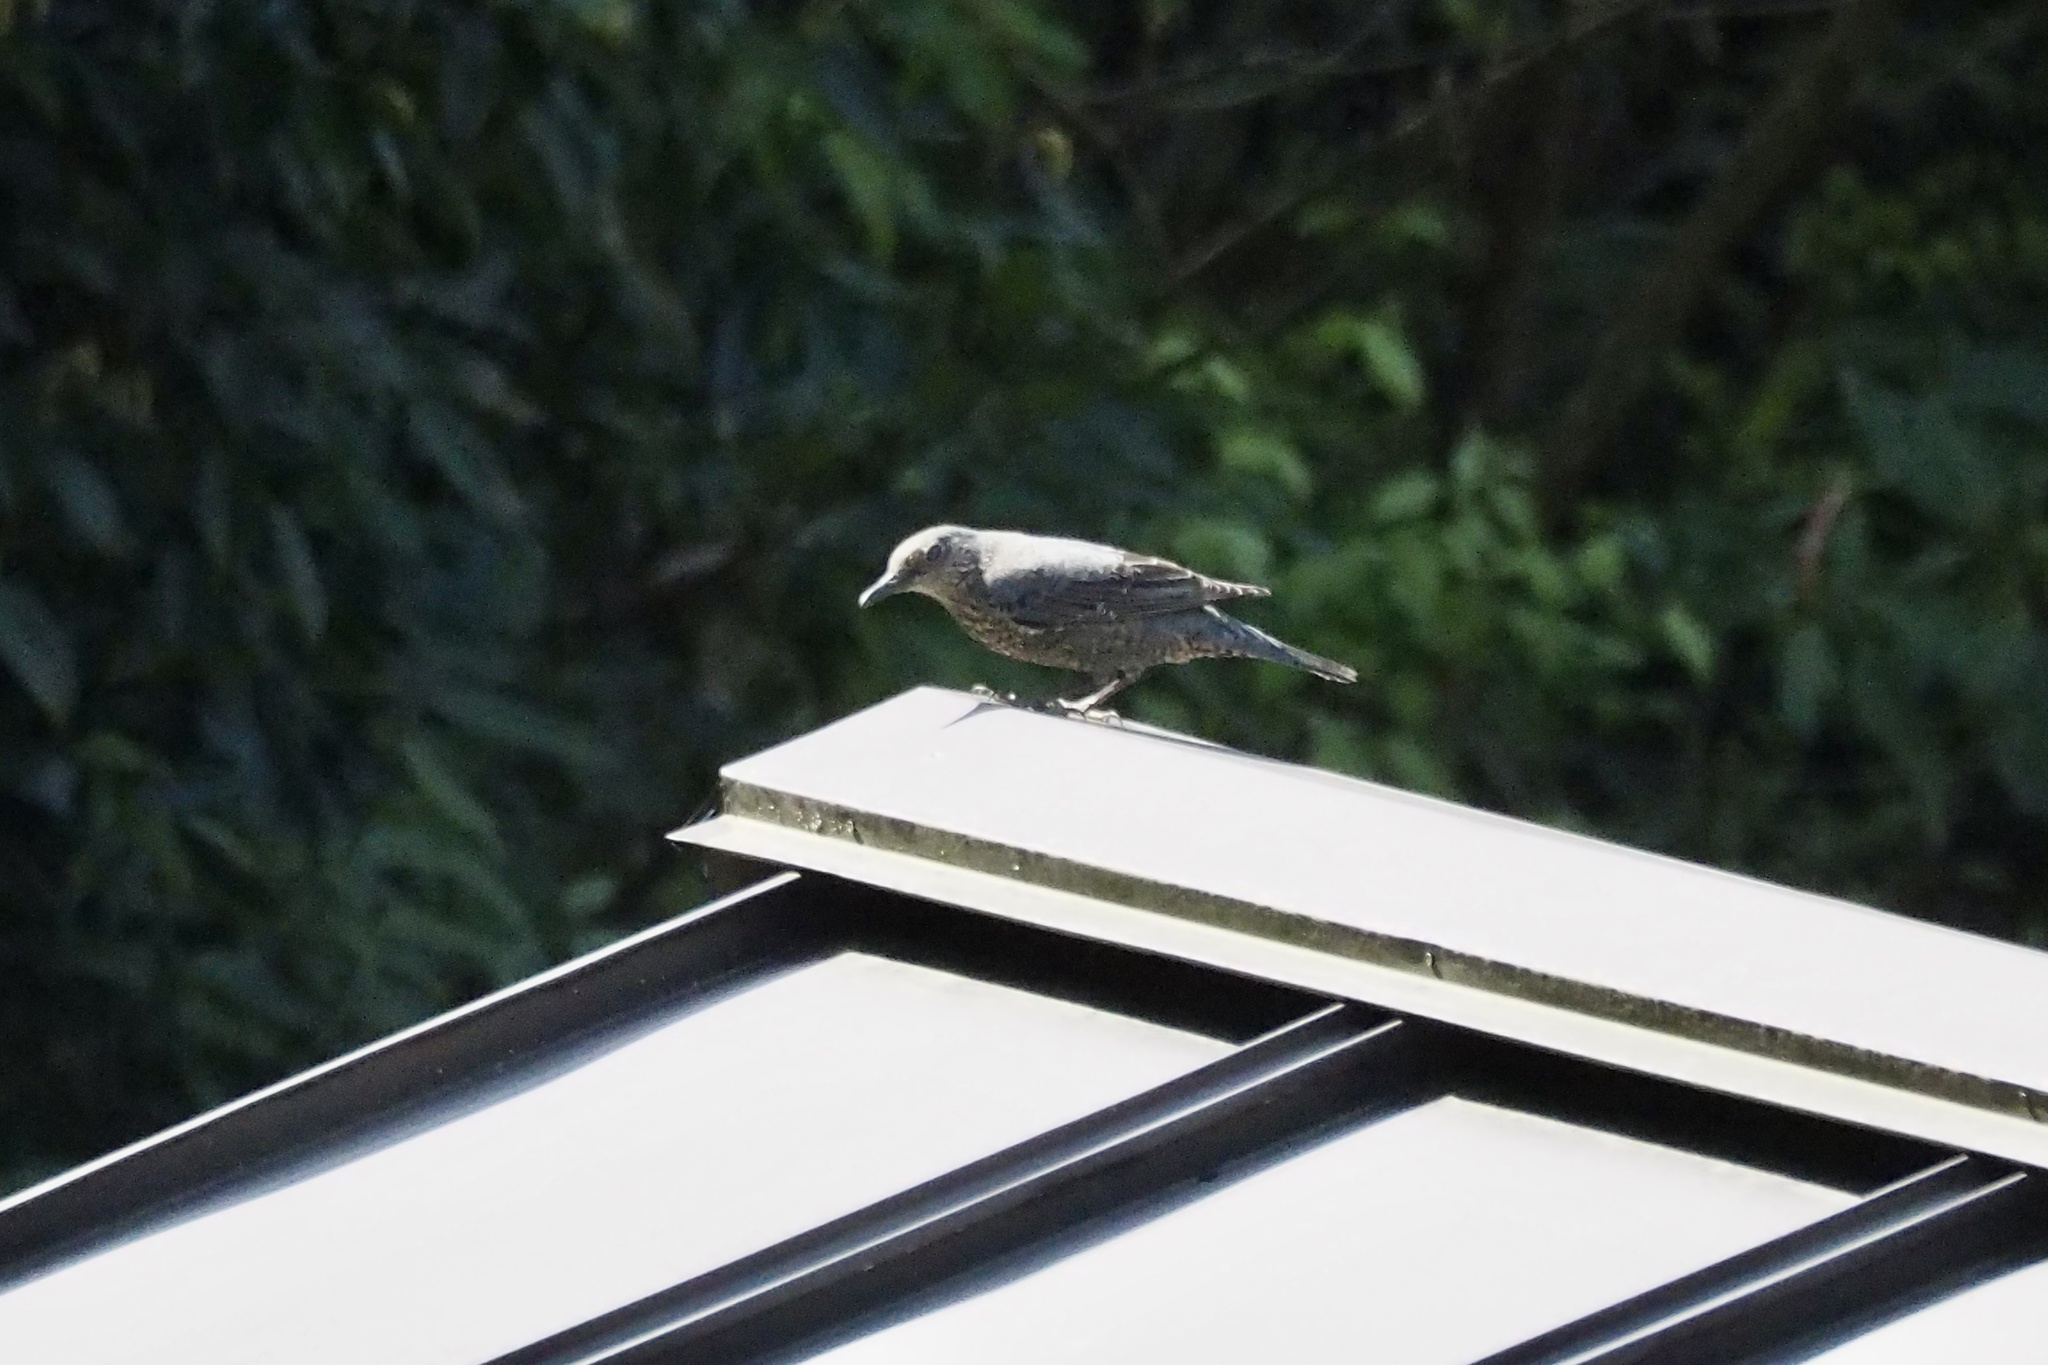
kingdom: Animalia
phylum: Chordata
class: Aves
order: Passeriformes
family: Muscicapidae
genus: Monticola
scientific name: Monticola solitarius
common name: Blue rock thrush
